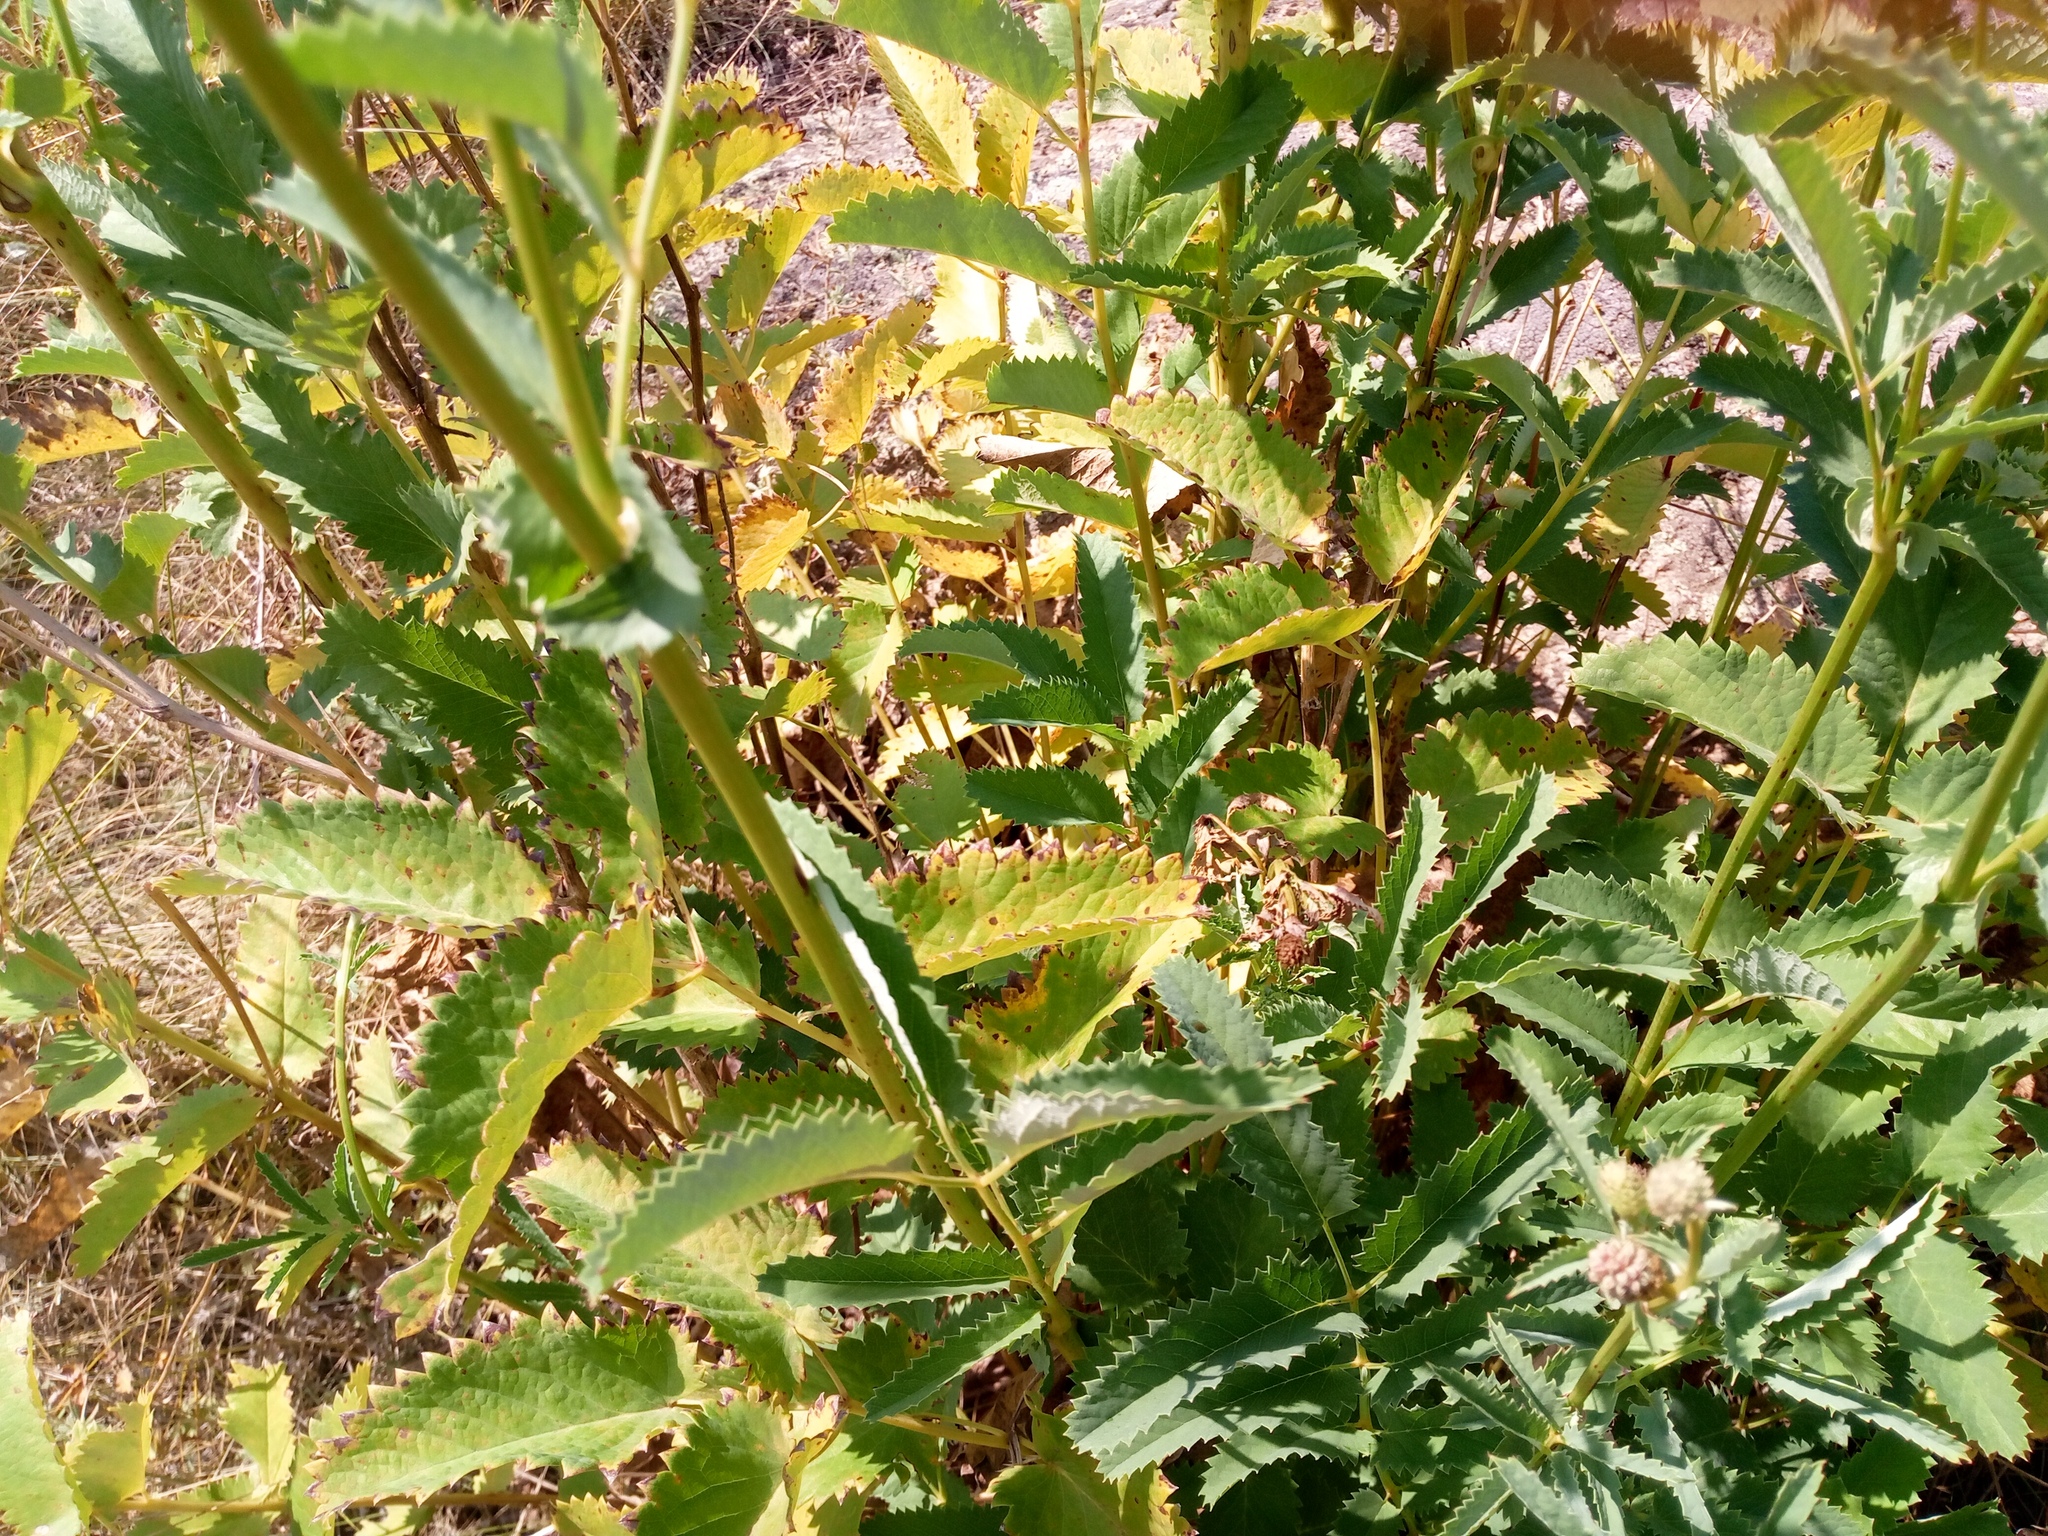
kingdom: Plantae
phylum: Tracheophyta
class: Magnoliopsida
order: Rosales
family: Rosaceae
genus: Sanguisorba
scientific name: Sanguisorba officinalis
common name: Great burnet
